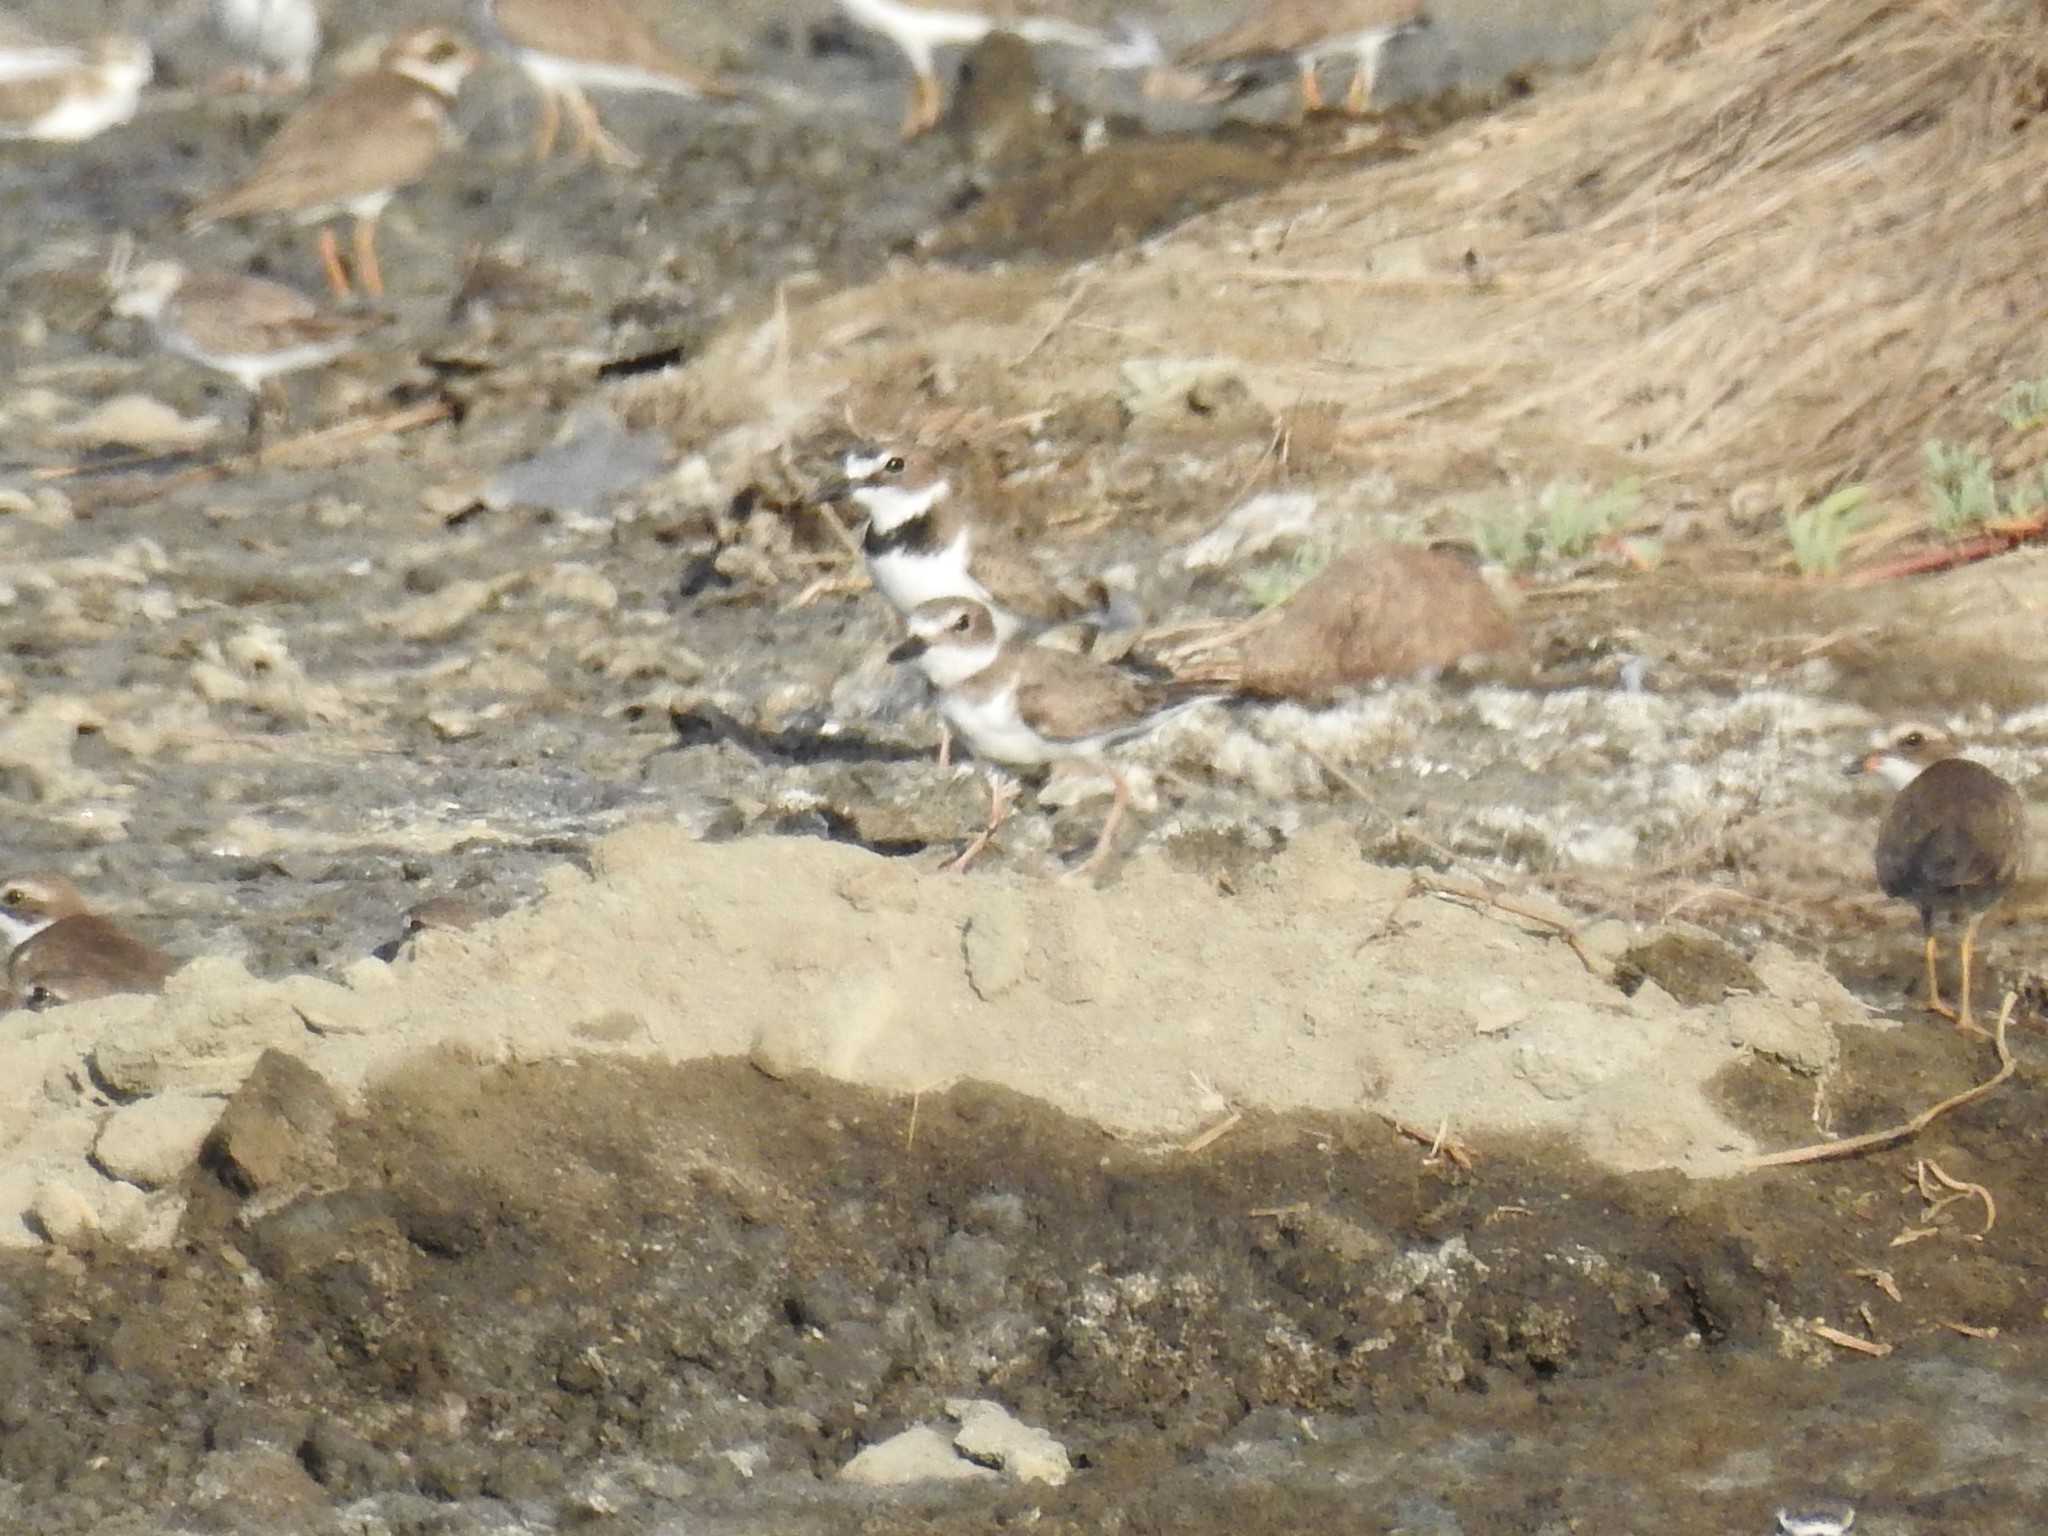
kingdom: Animalia
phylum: Chordata
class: Aves
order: Charadriiformes
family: Charadriidae
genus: Anarhynchus
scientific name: Anarhynchus
